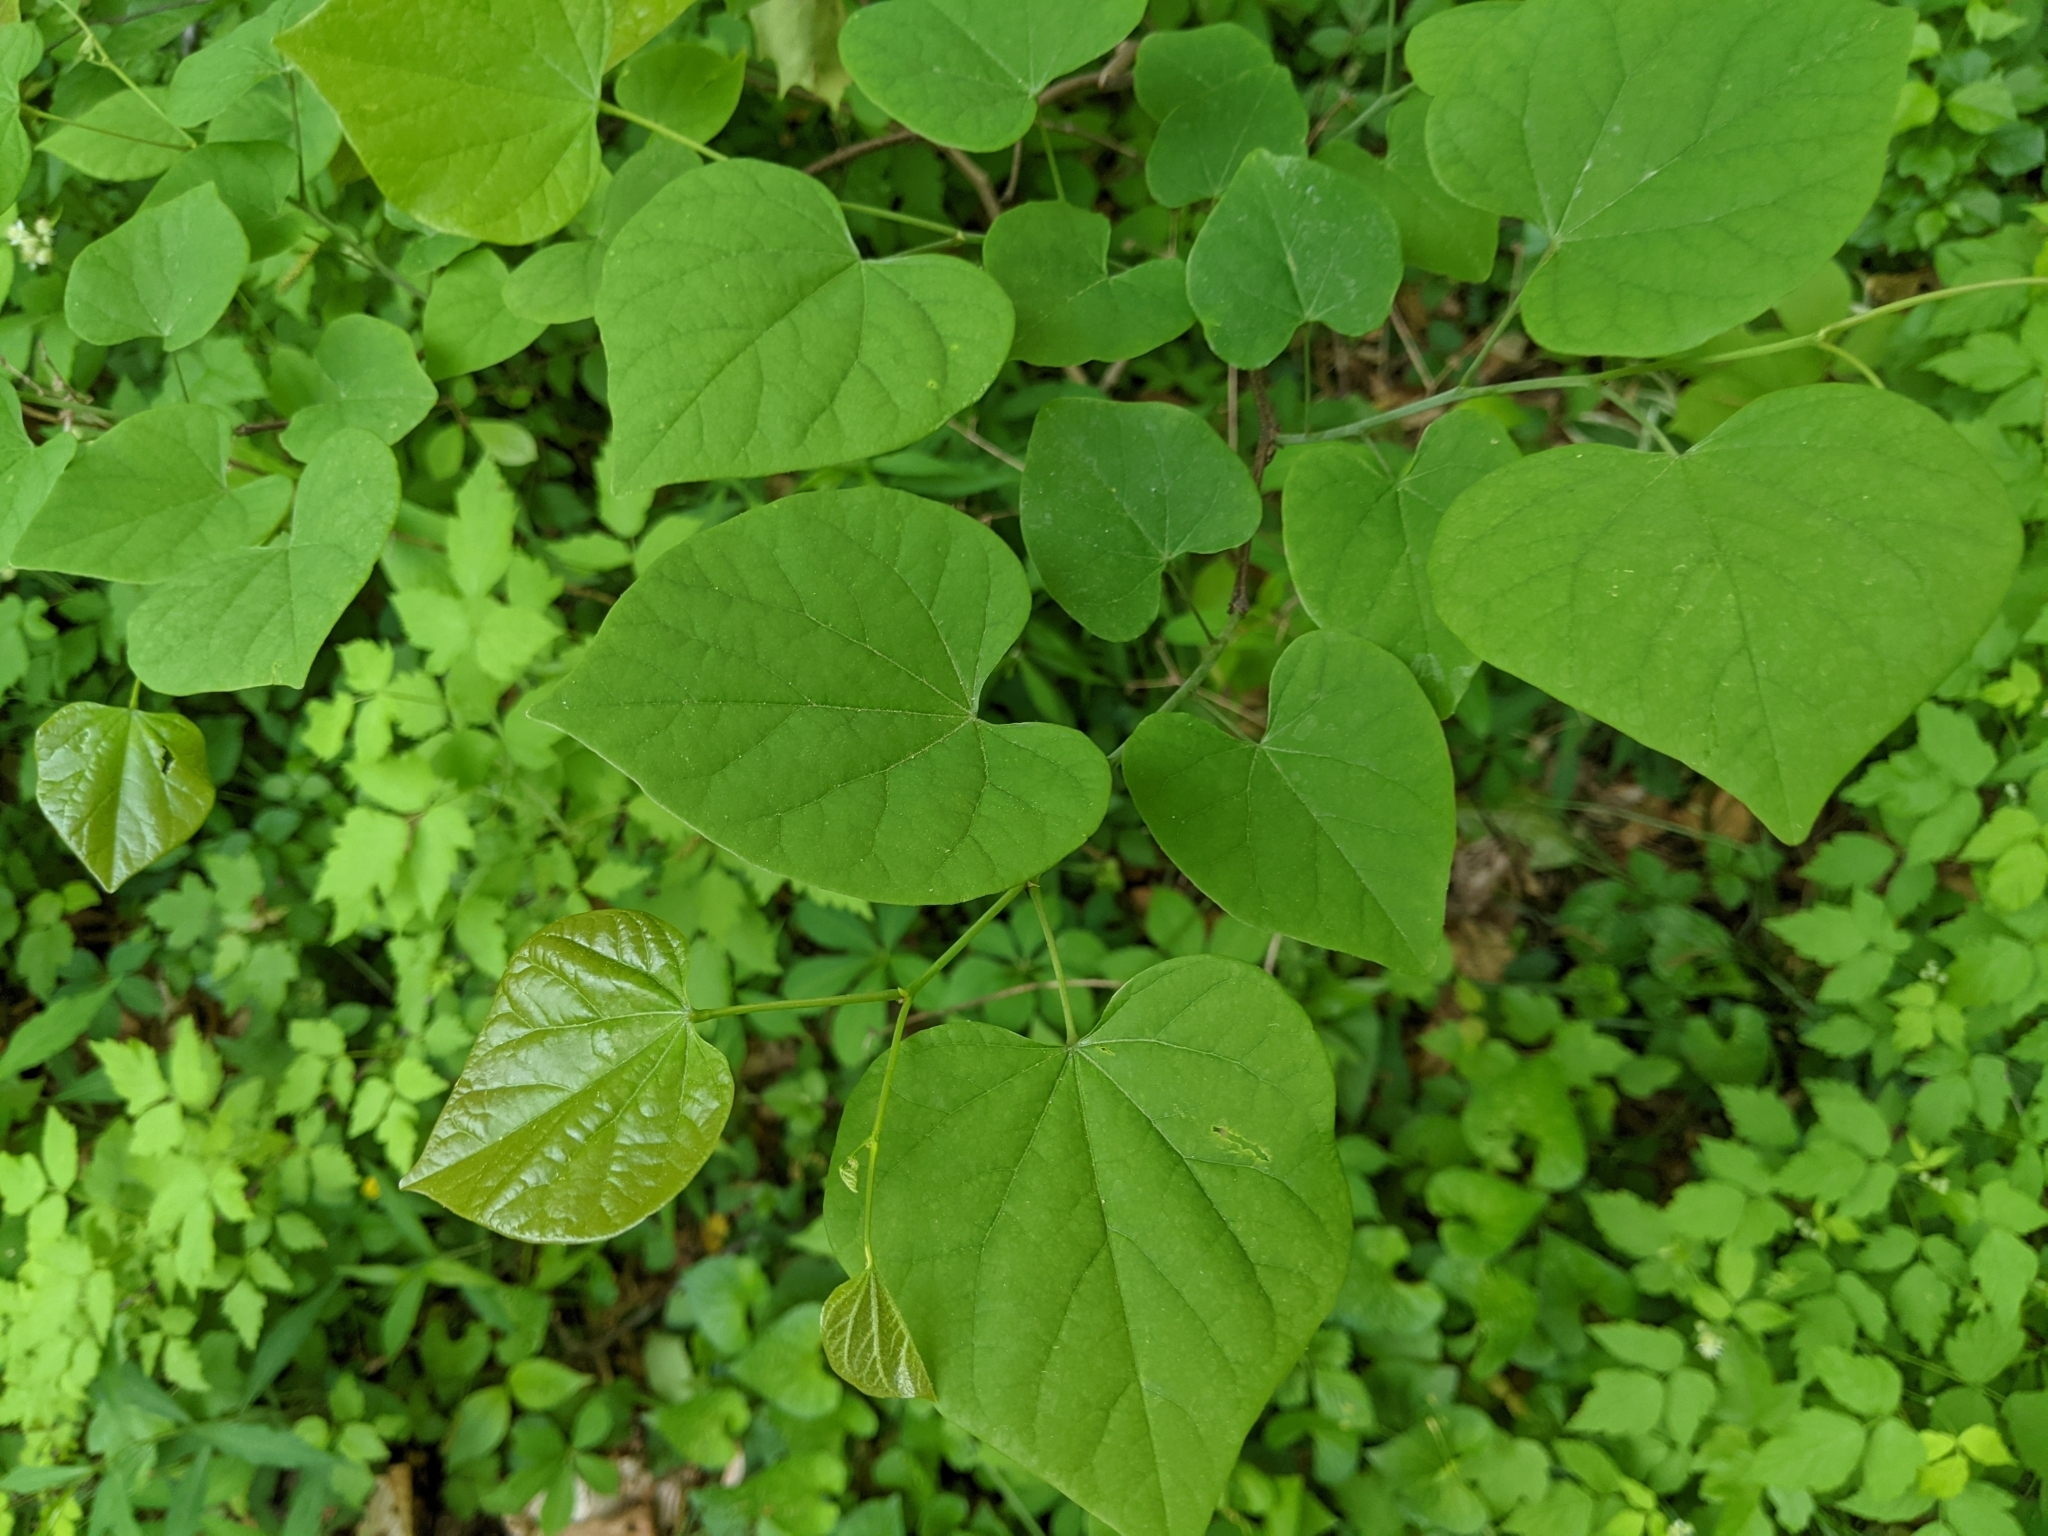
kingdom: Plantae
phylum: Tracheophyta
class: Magnoliopsida
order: Fabales
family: Fabaceae
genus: Cercis
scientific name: Cercis canadensis
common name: Eastern redbud
